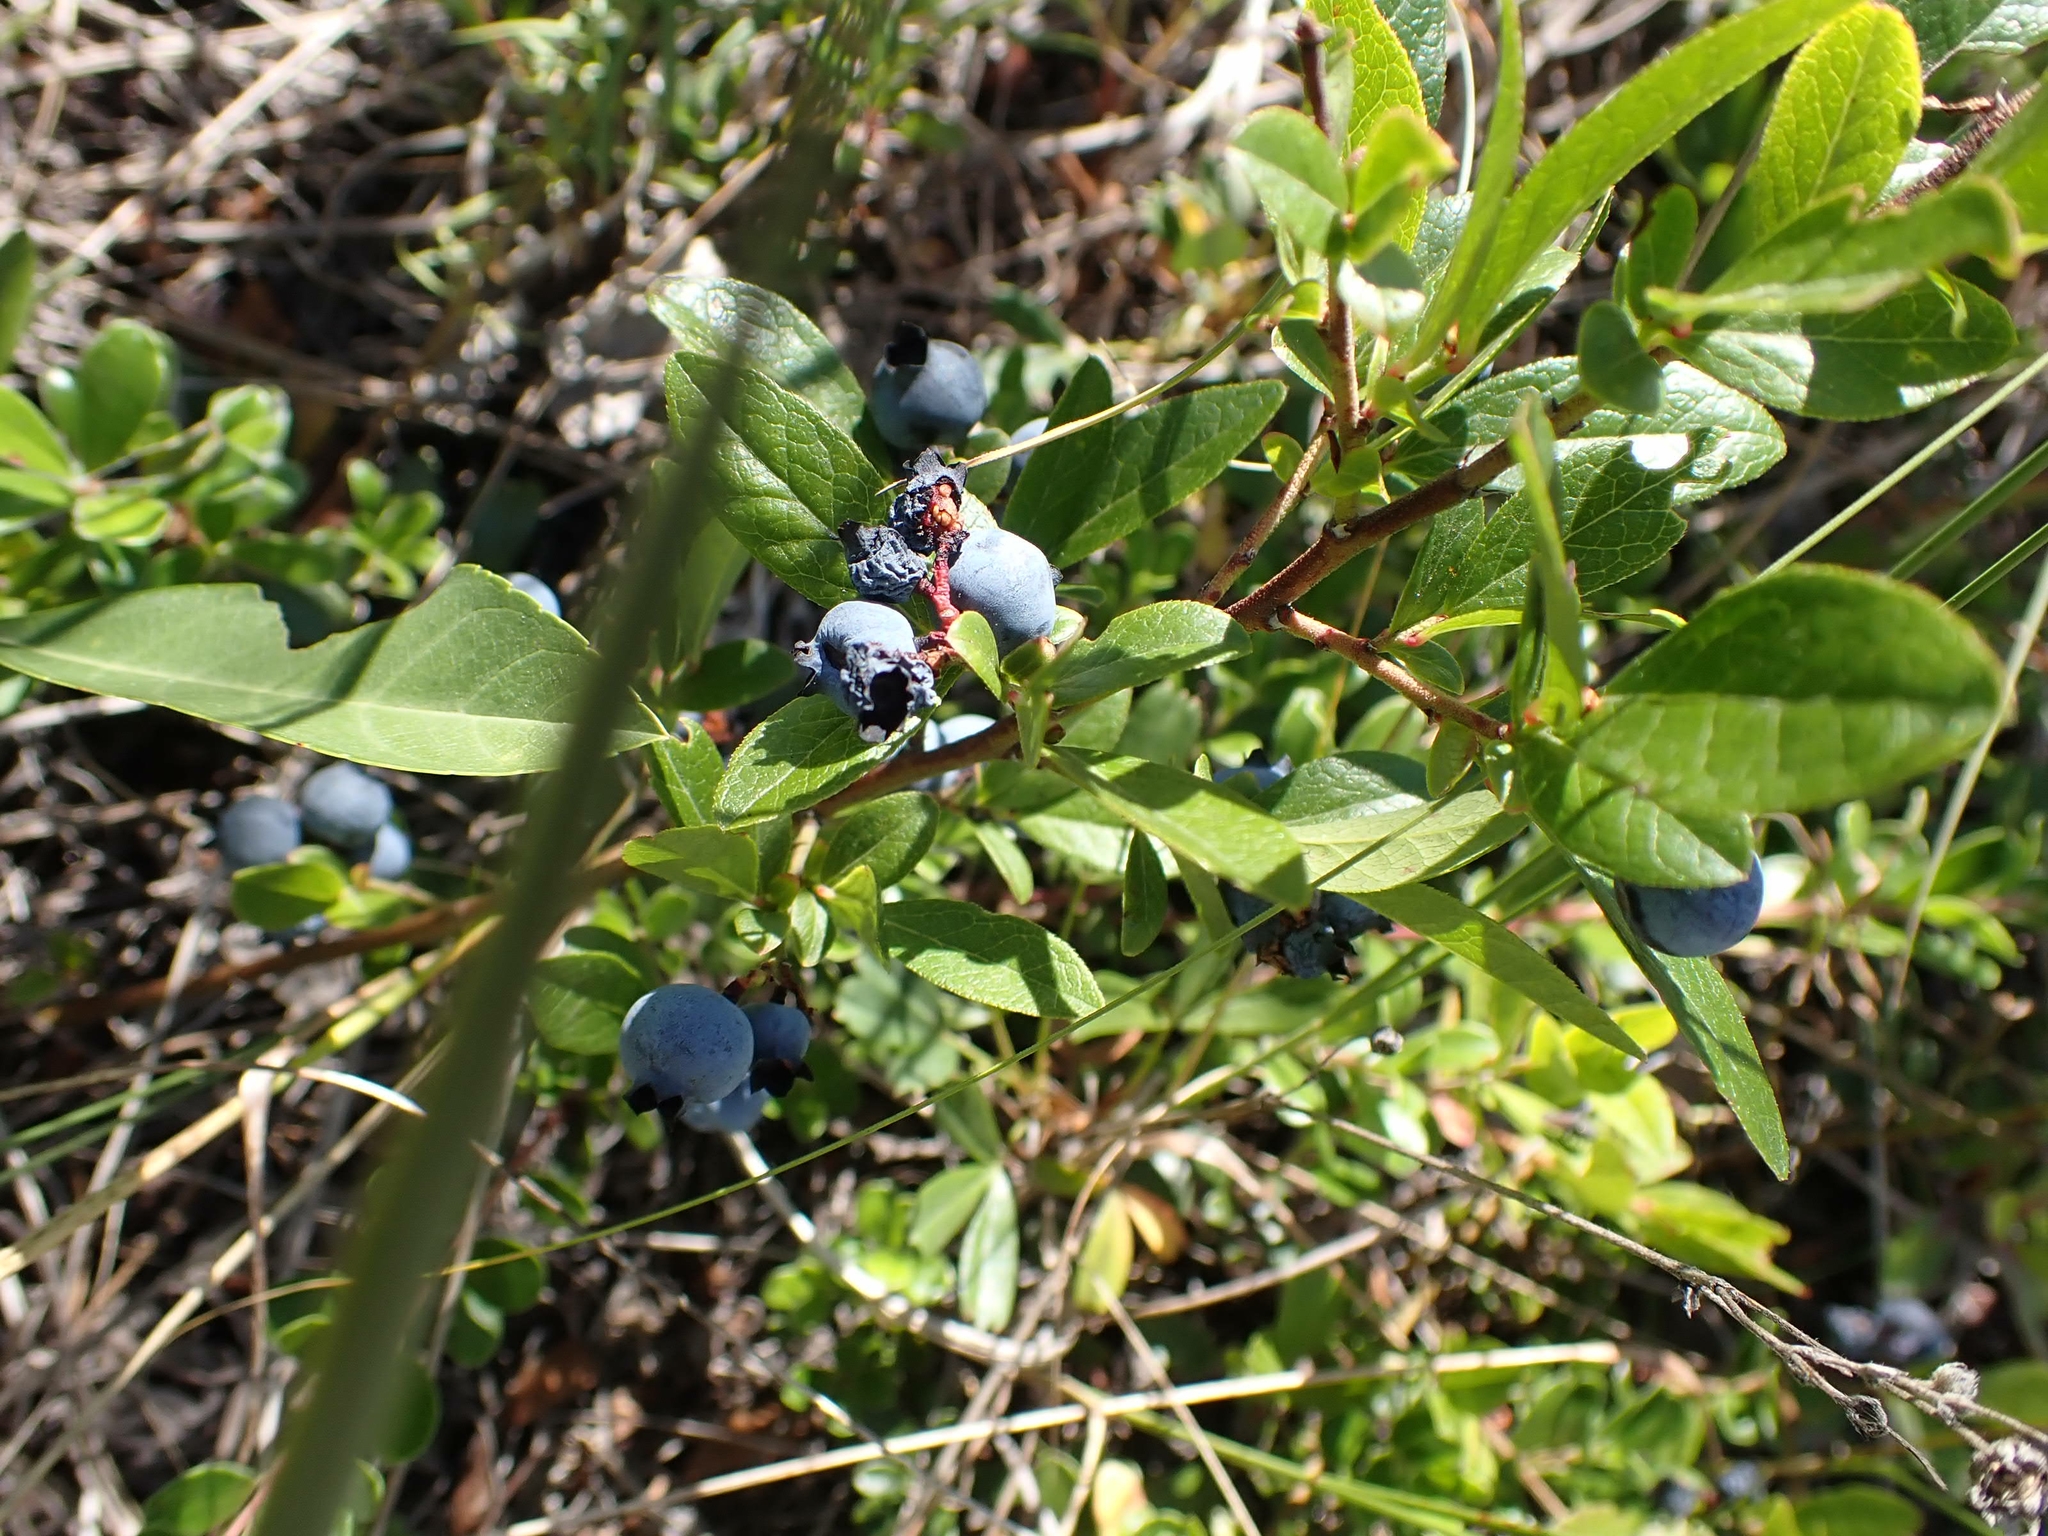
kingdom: Plantae
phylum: Tracheophyta
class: Magnoliopsida
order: Ericales
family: Ericaceae
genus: Vaccinium
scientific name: Vaccinium angustifolium
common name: Early lowbush blueberry
